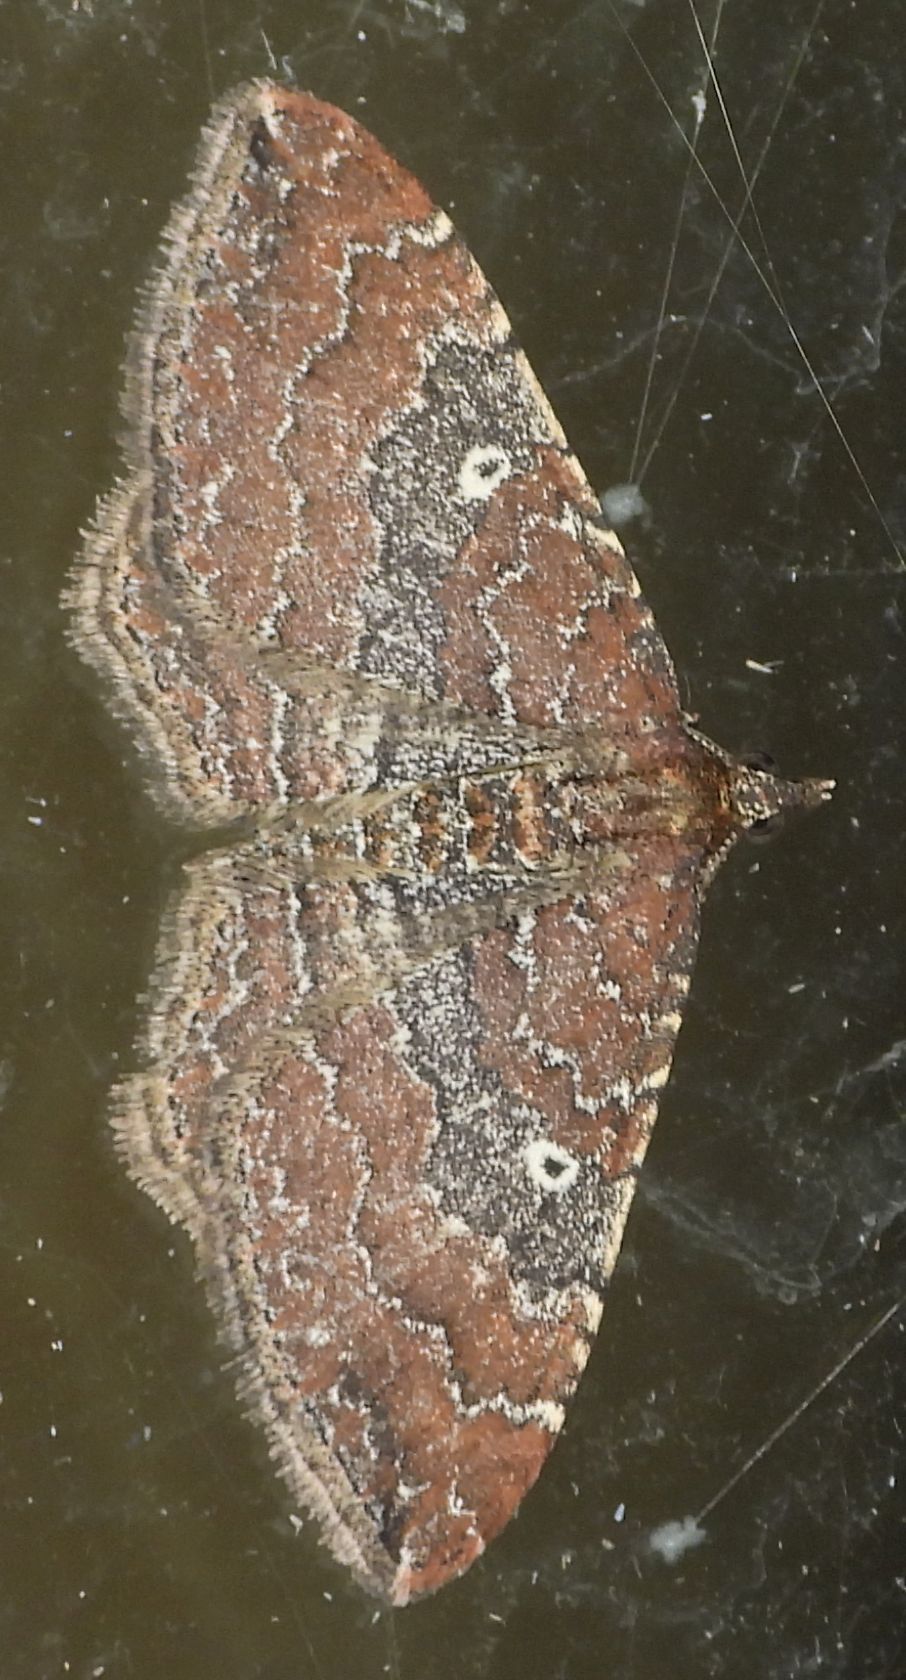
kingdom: Animalia
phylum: Arthropoda
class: Insecta
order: Lepidoptera
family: Geometridae
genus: Orthonama
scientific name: Orthonama obstipata
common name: The gem
